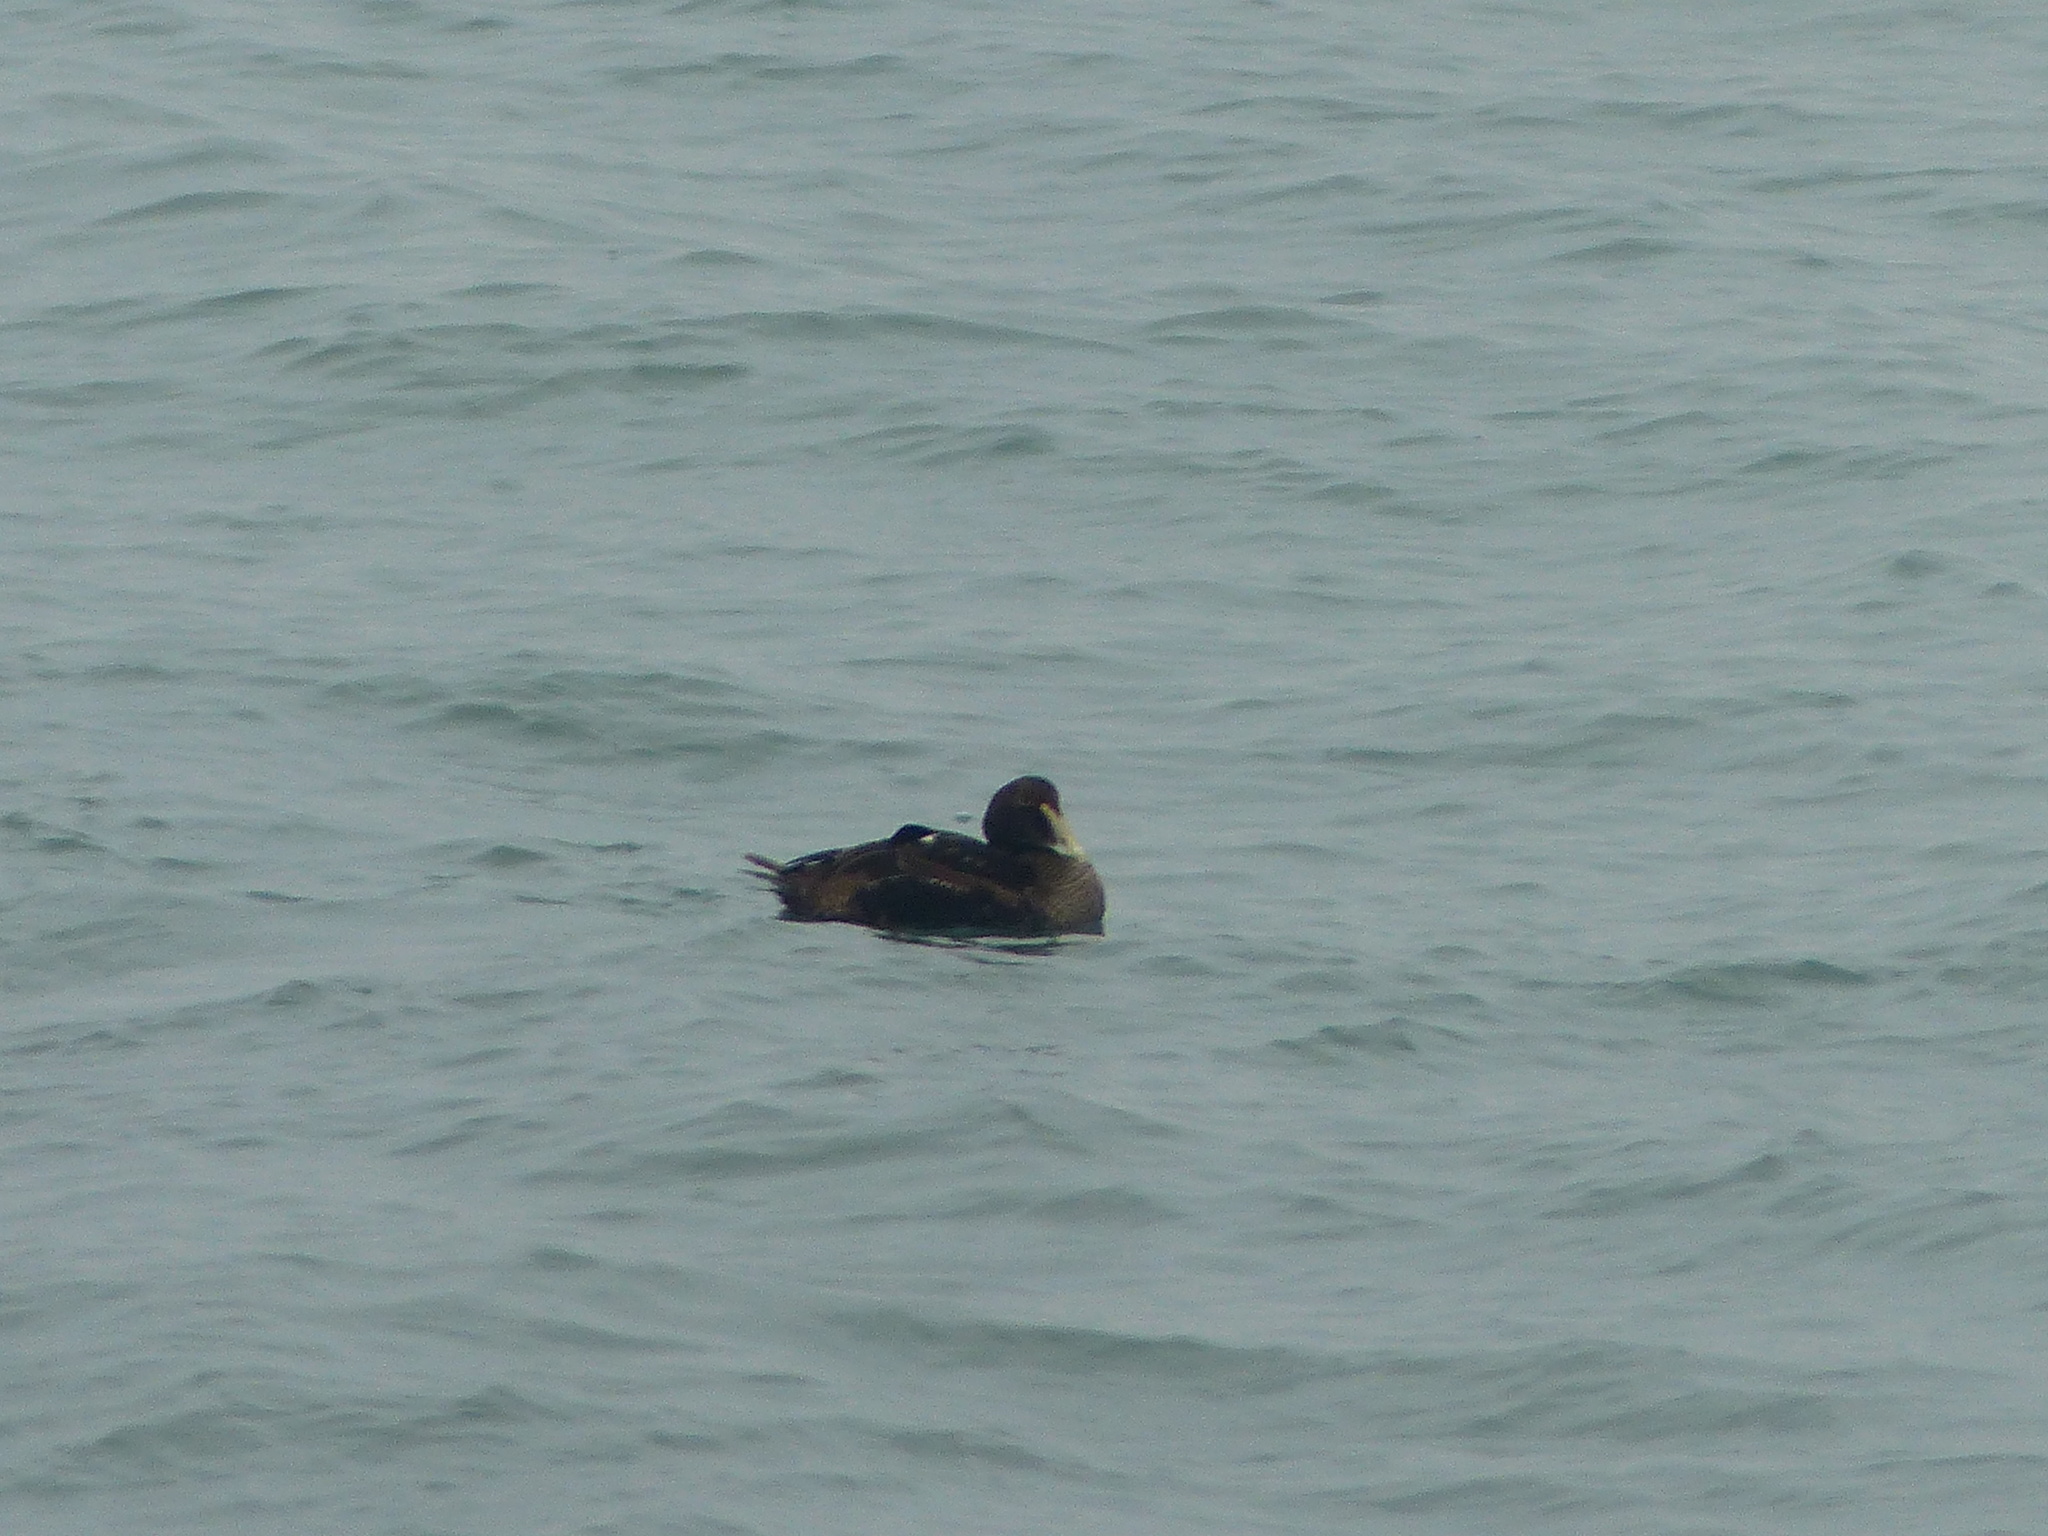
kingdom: Animalia
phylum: Chordata
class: Aves
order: Anseriformes
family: Anatidae
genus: Somateria
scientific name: Somateria mollissima
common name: Common eider
